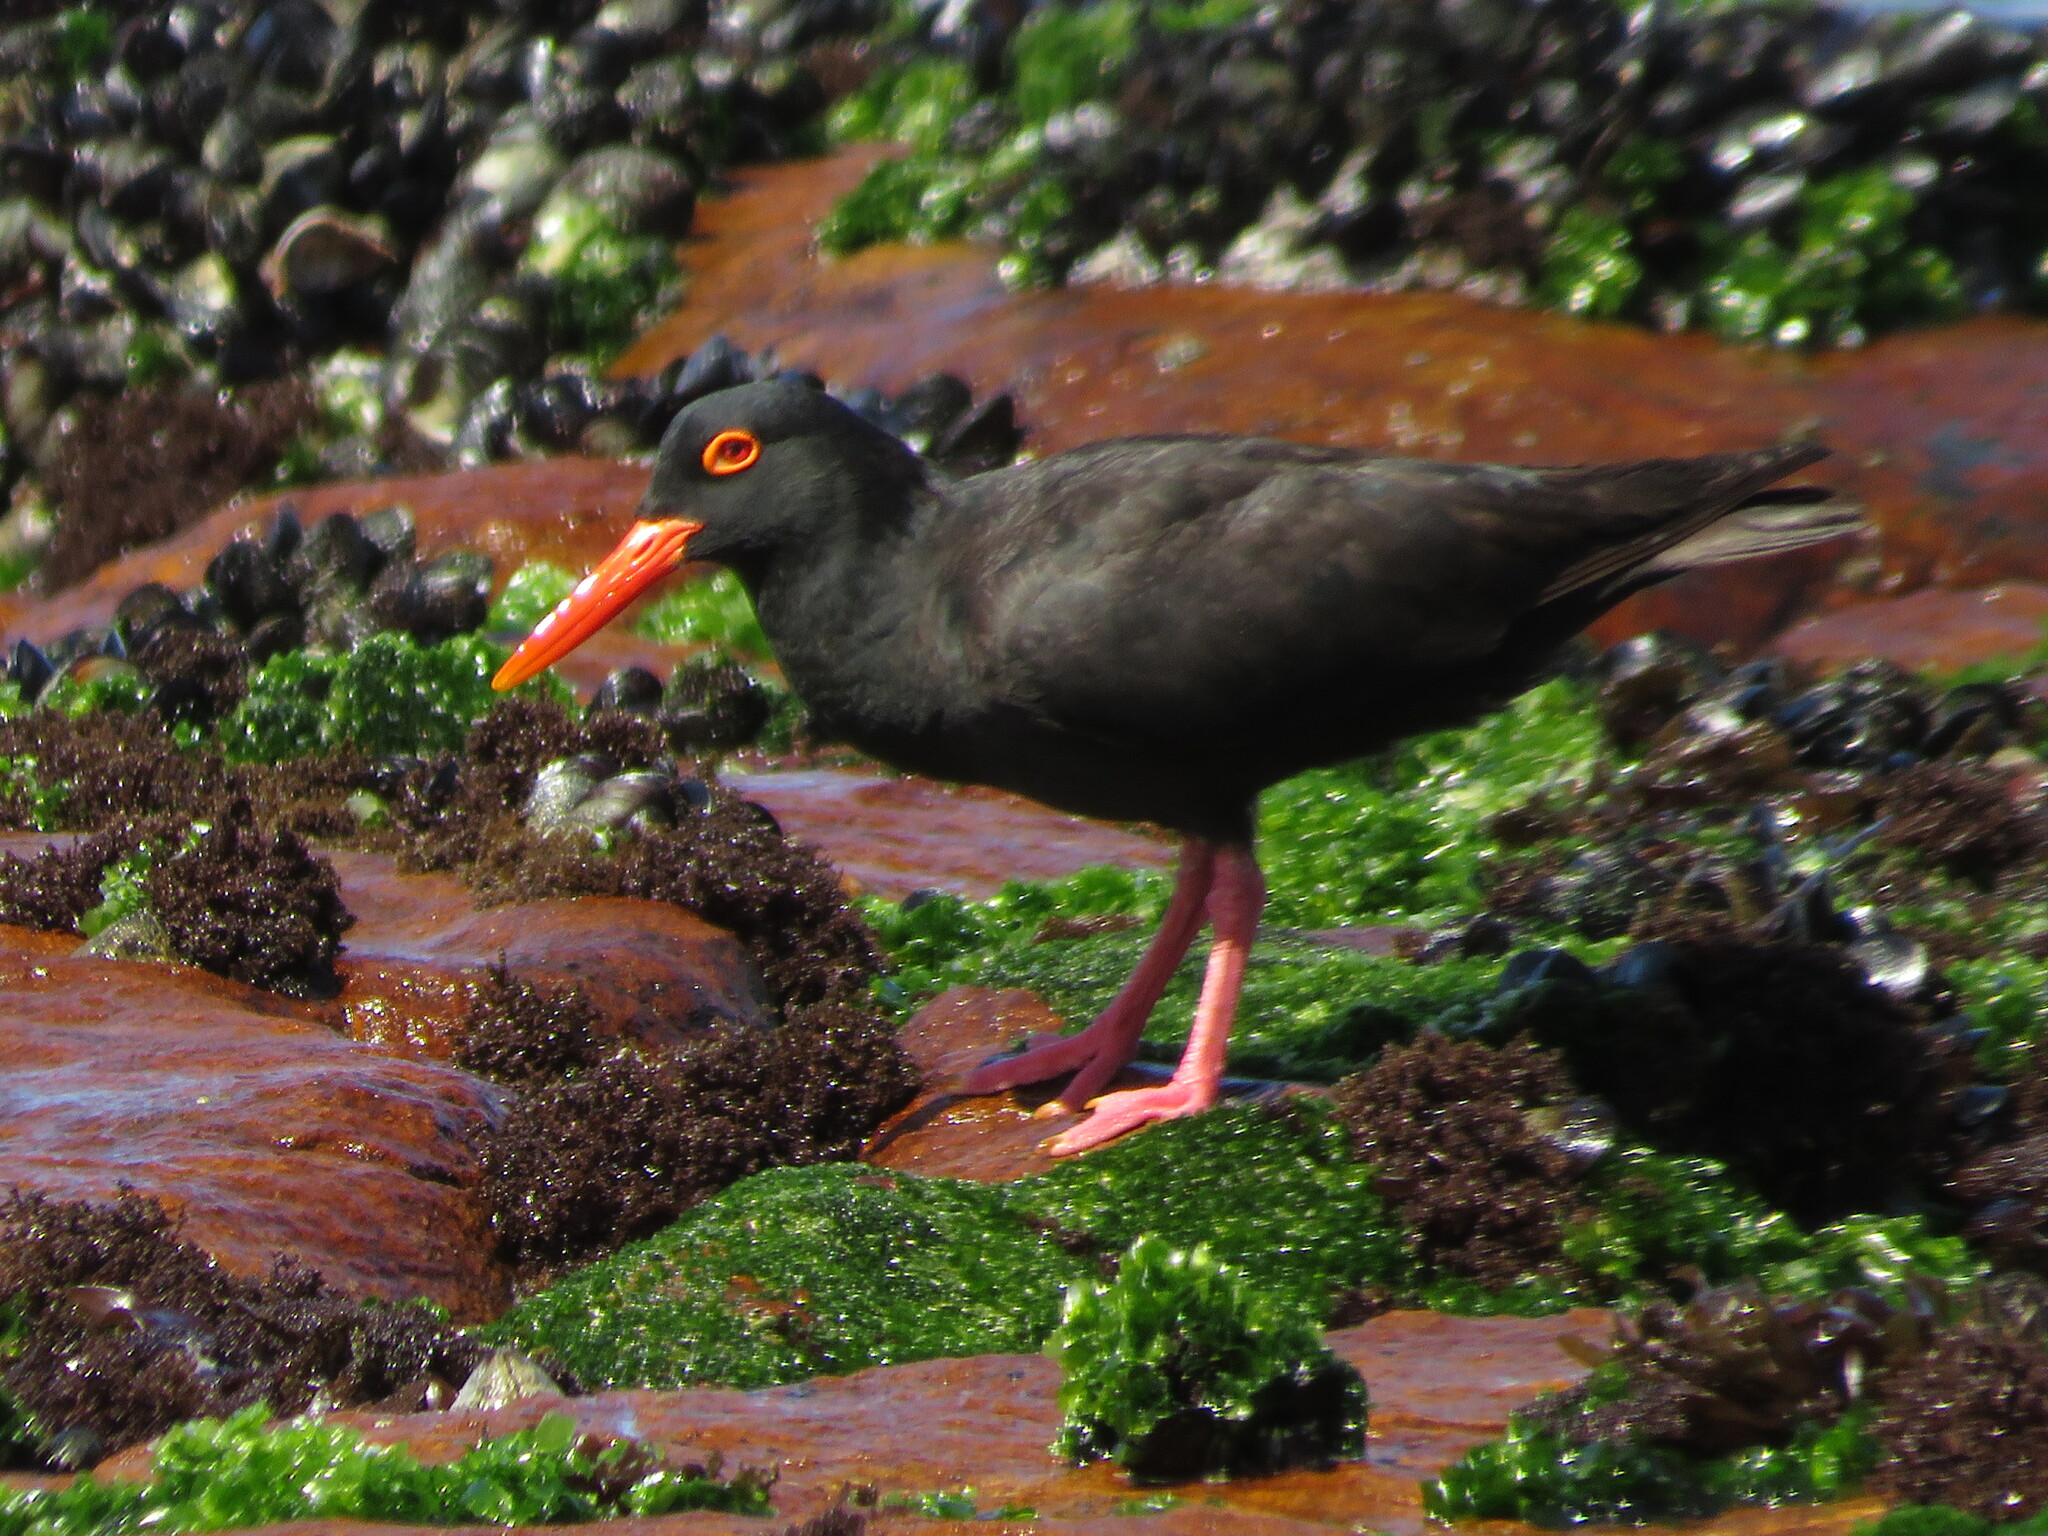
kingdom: Animalia
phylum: Chordata
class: Aves
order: Charadriiformes
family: Haematopodidae
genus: Haematopus
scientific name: Haematopus moquini
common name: African oystercatcher
